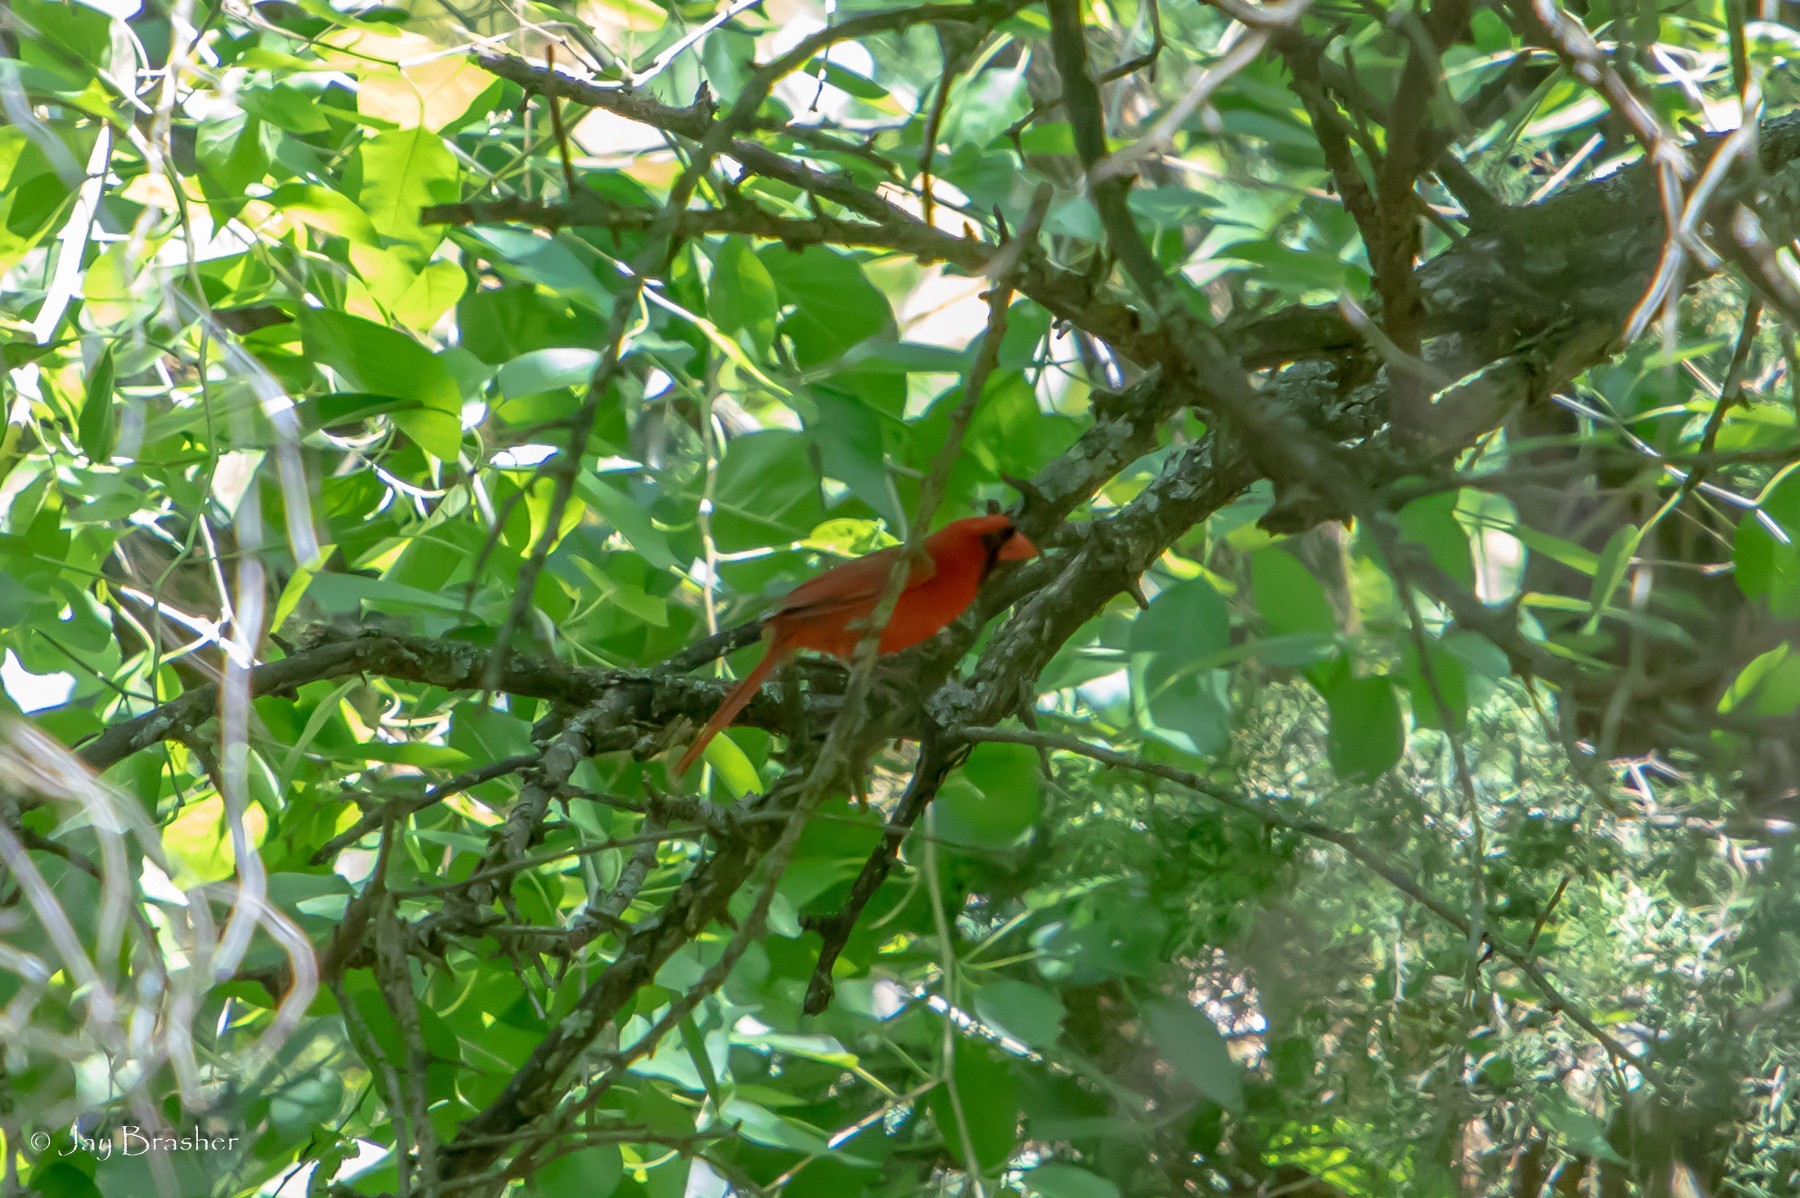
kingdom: Animalia
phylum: Chordata
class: Aves
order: Passeriformes
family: Cardinalidae
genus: Cardinalis
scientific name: Cardinalis cardinalis
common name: Northern cardinal
